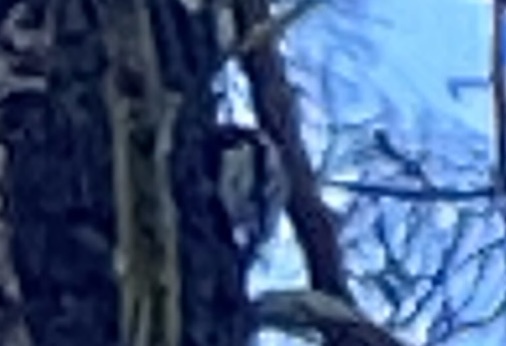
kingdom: Animalia
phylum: Chordata
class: Aves
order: Piciformes
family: Picidae
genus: Dryobates
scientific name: Dryobates pubescens
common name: Downy woodpecker
